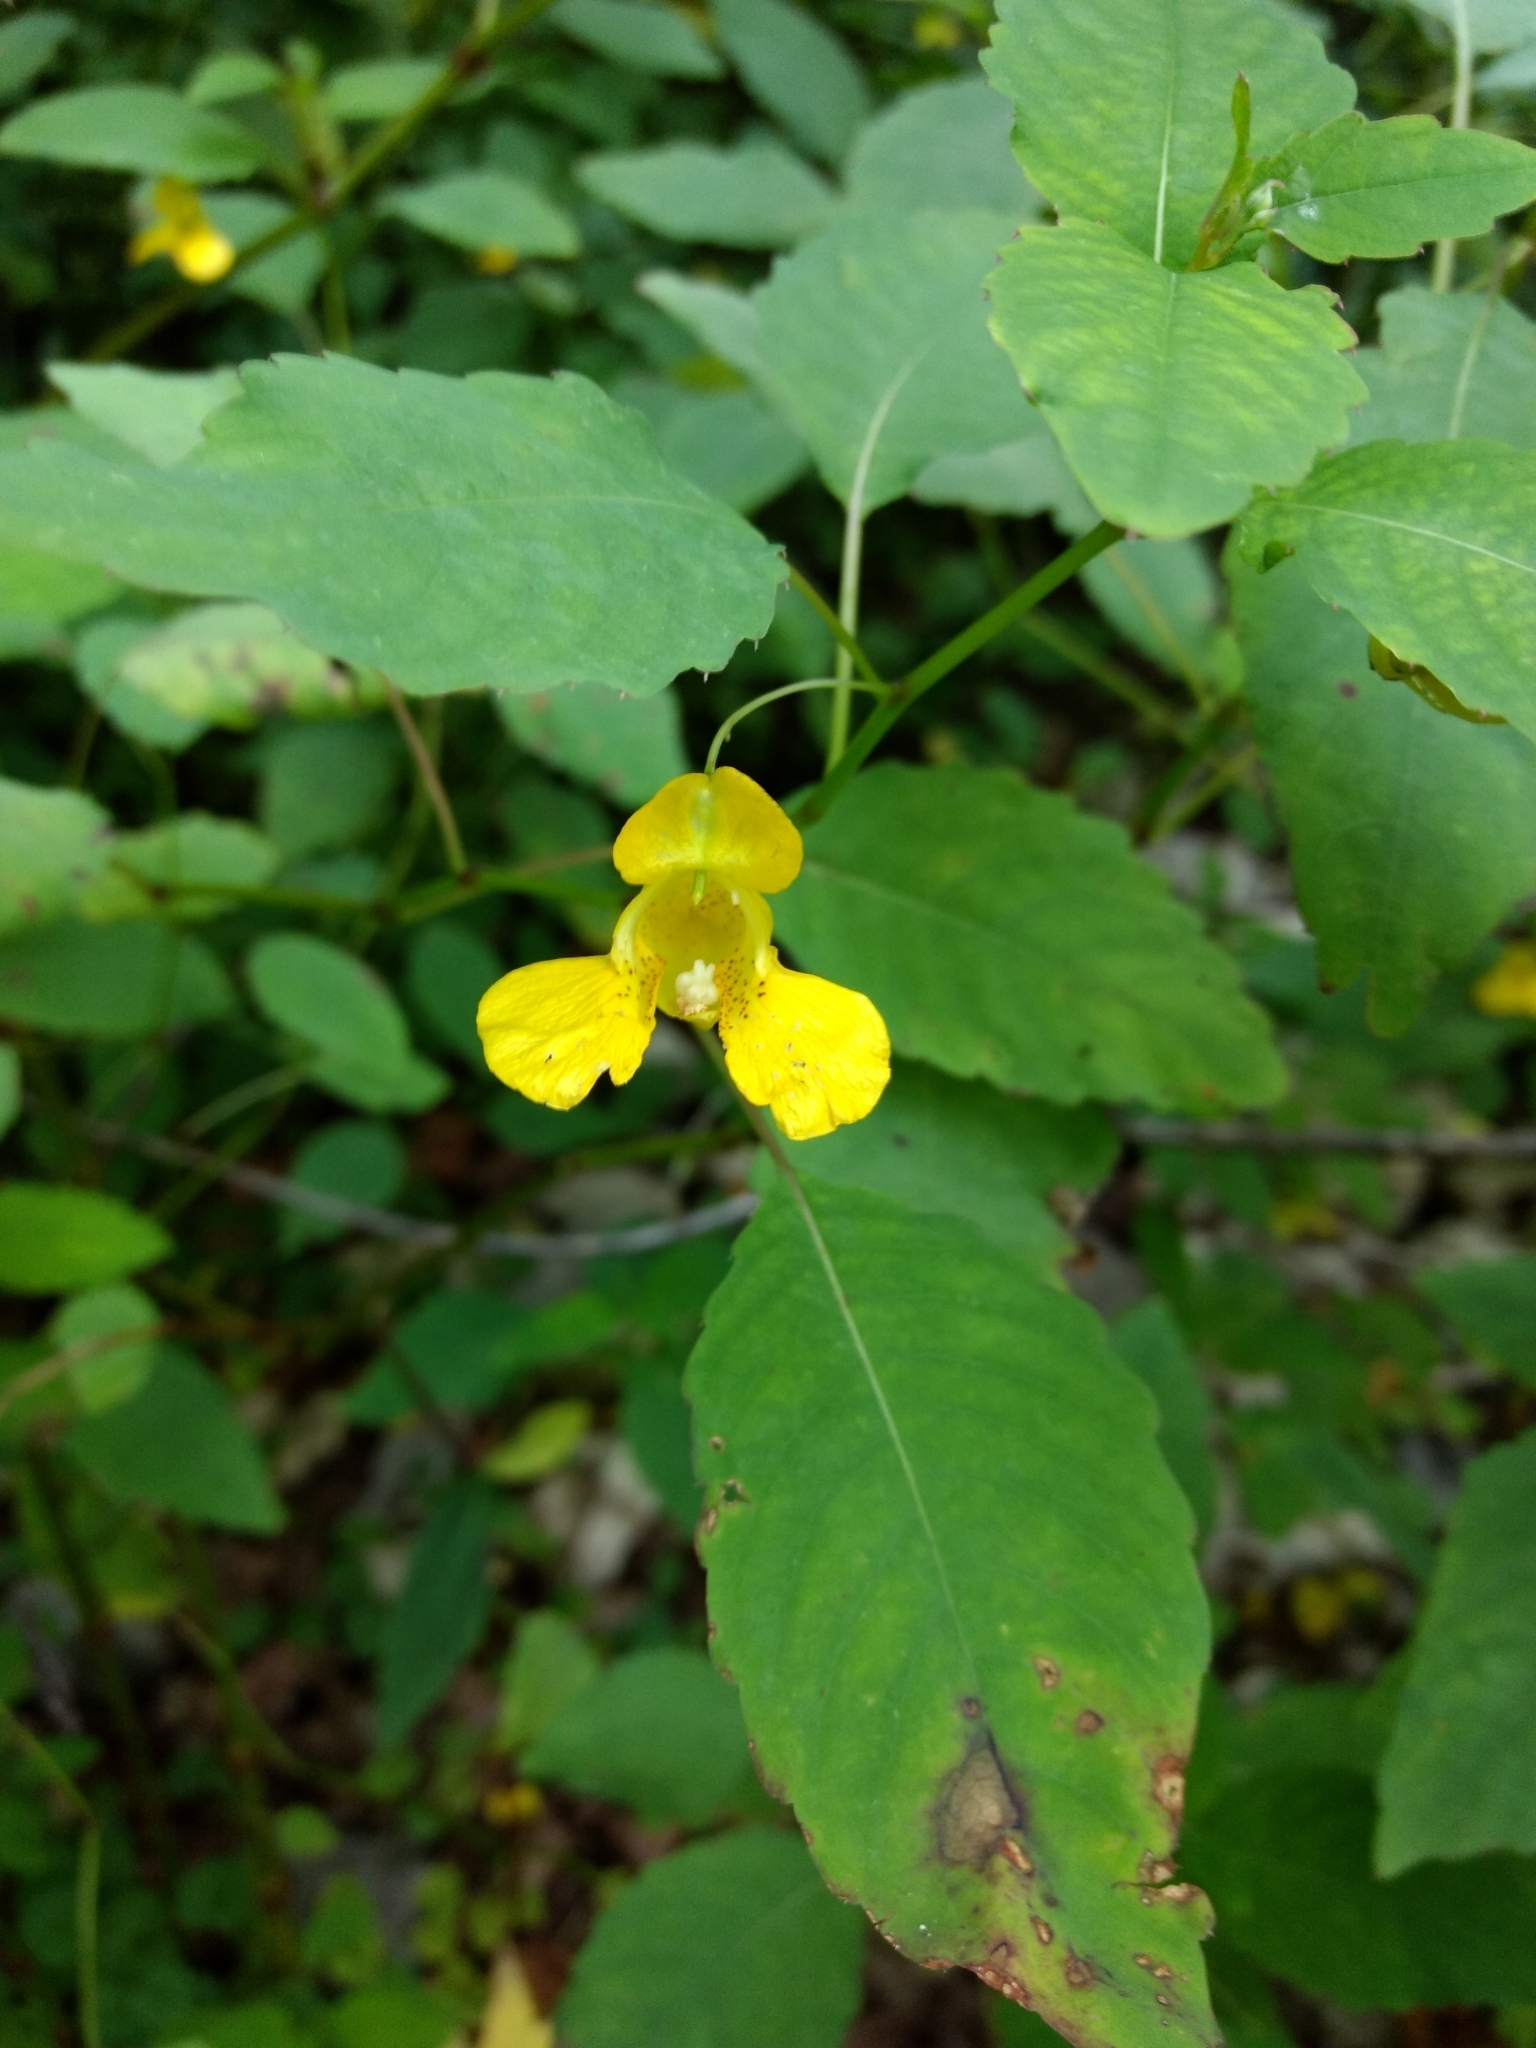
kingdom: Plantae
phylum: Tracheophyta
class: Magnoliopsida
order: Ericales
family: Balsaminaceae
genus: Impatiens
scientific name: Impatiens pallida
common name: Pale snapweed
